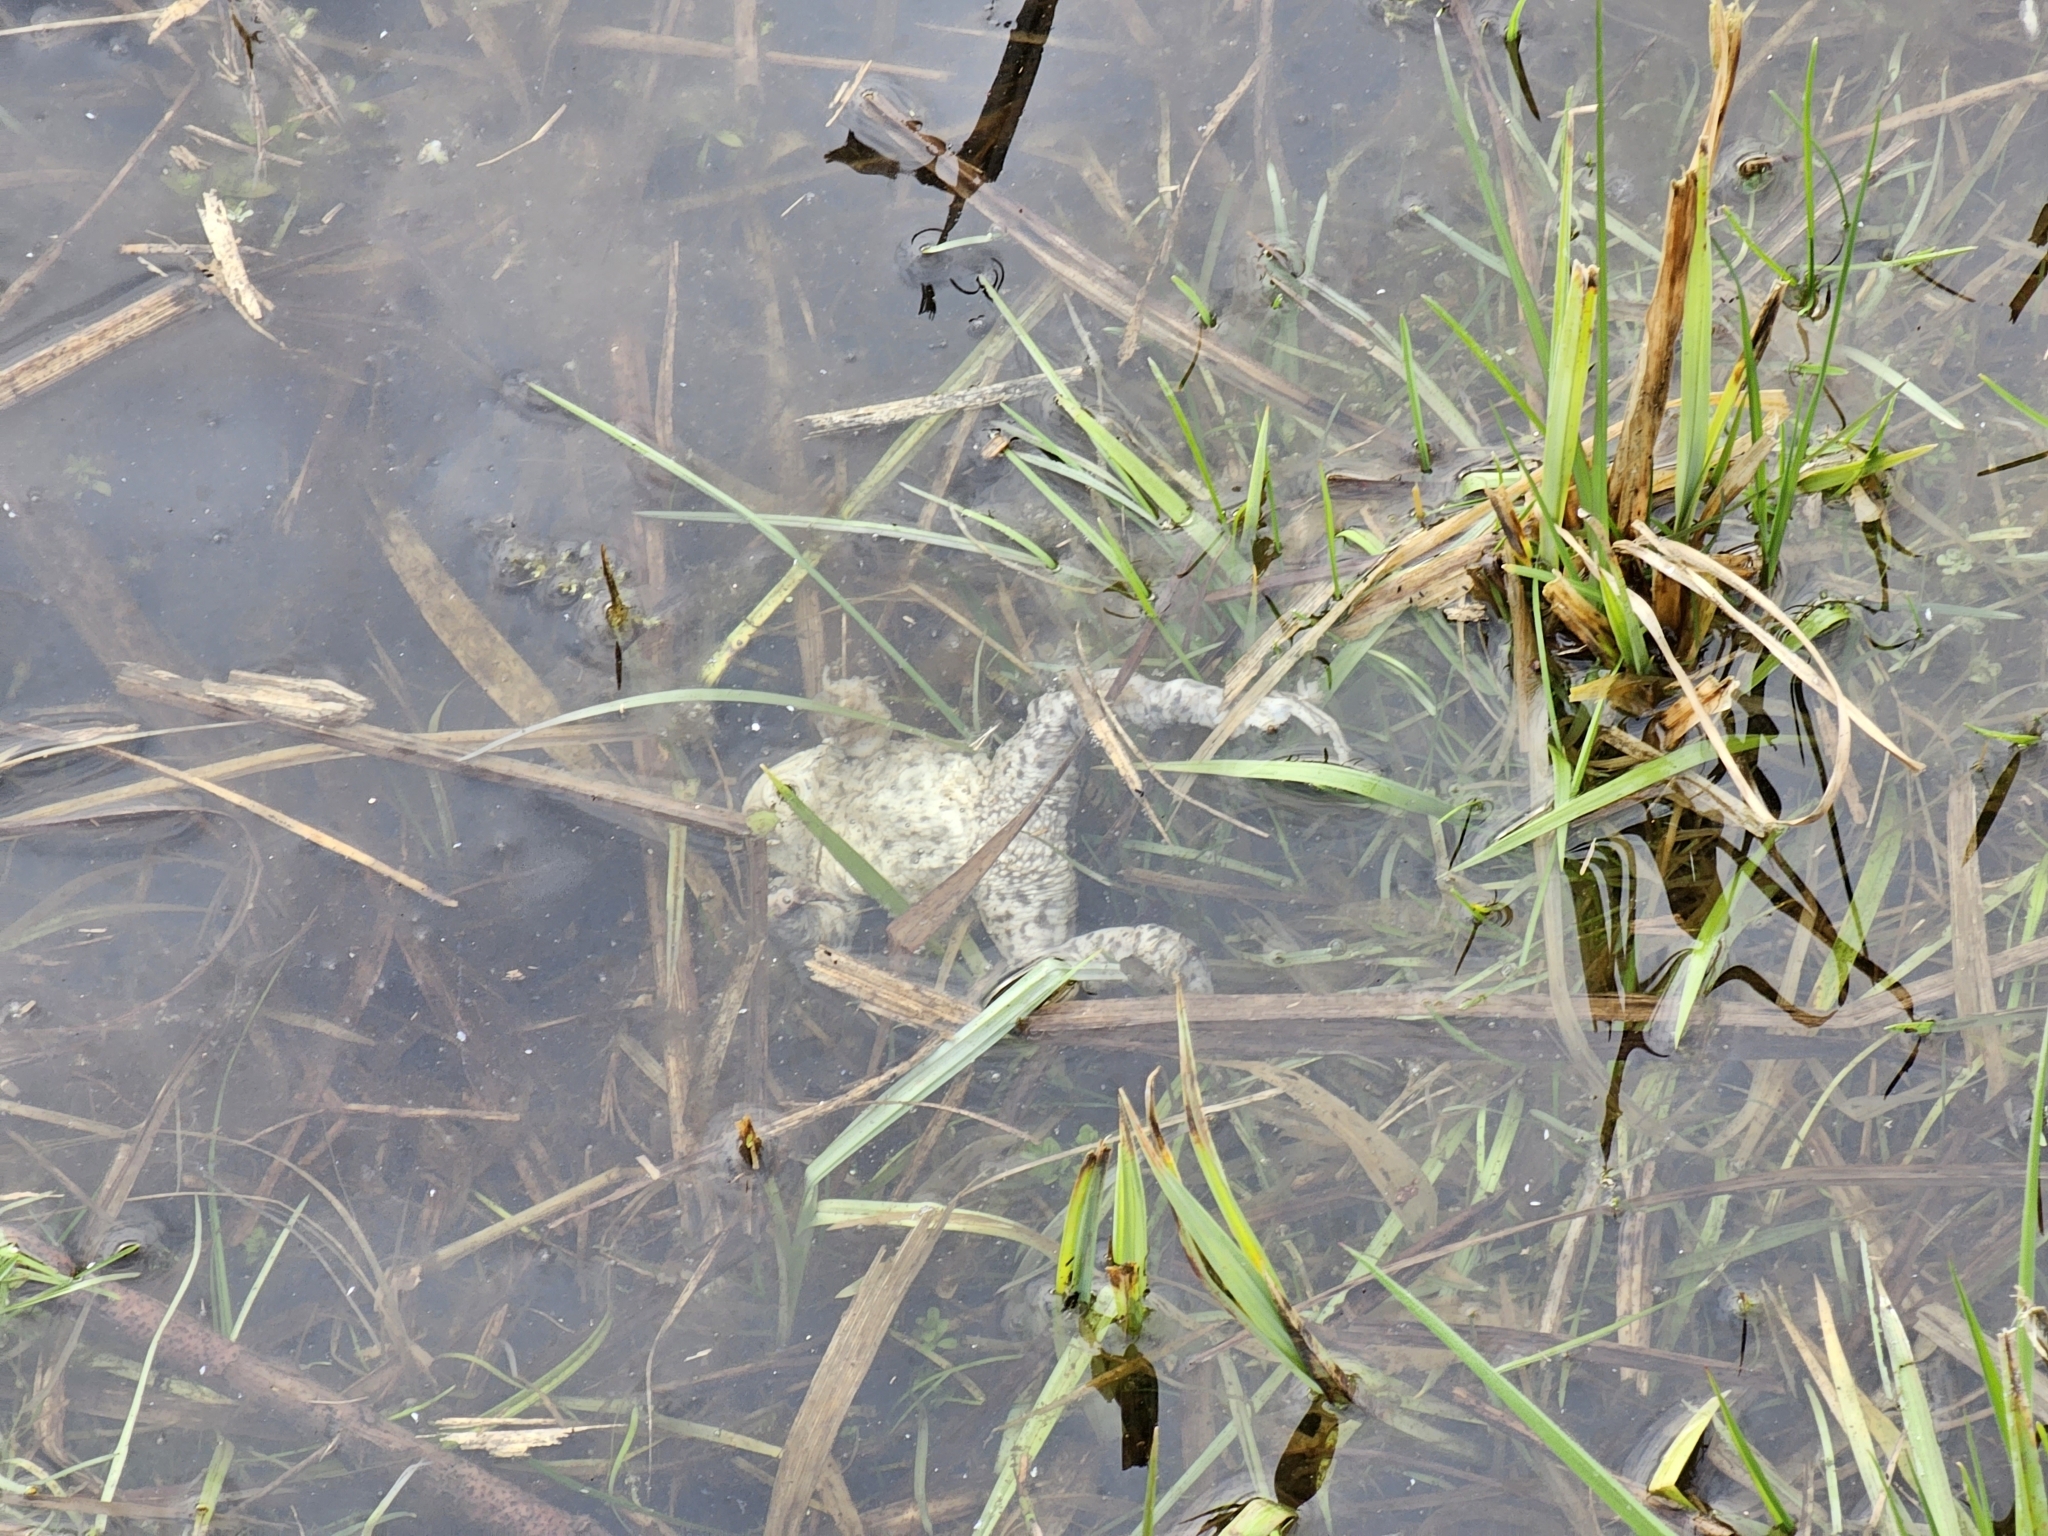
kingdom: Animalia
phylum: Chordata
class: Amphibia
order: Anura
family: Bufonidae
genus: Bufo
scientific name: Bufo bufo
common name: Common toad
